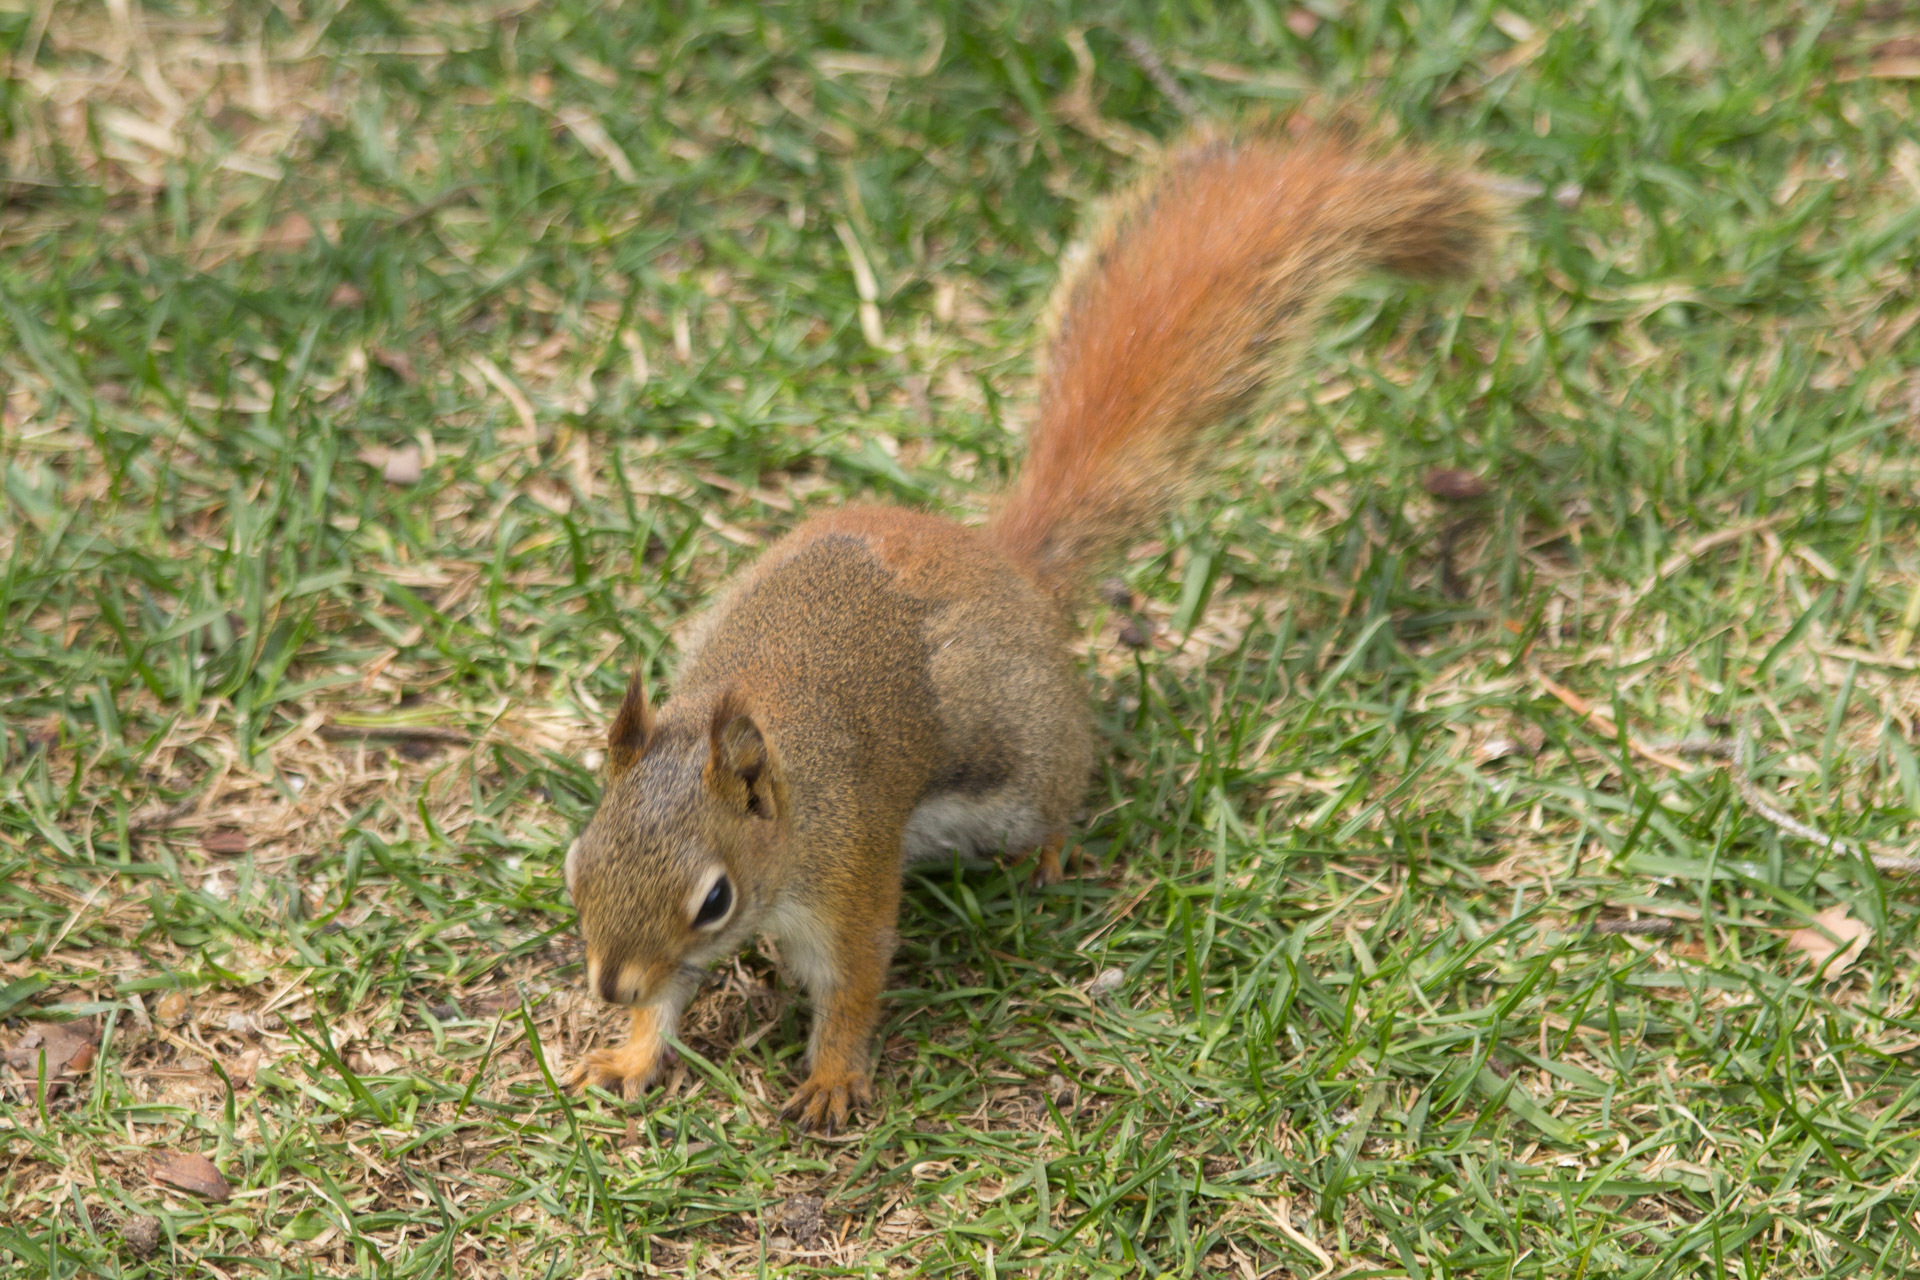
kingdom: Animalia
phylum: Chordata
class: Mammalia
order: Rodentia
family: Sciuridae
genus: Tamiasciurus
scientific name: Tamiasciurus hudsonicus
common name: Red squirrel
